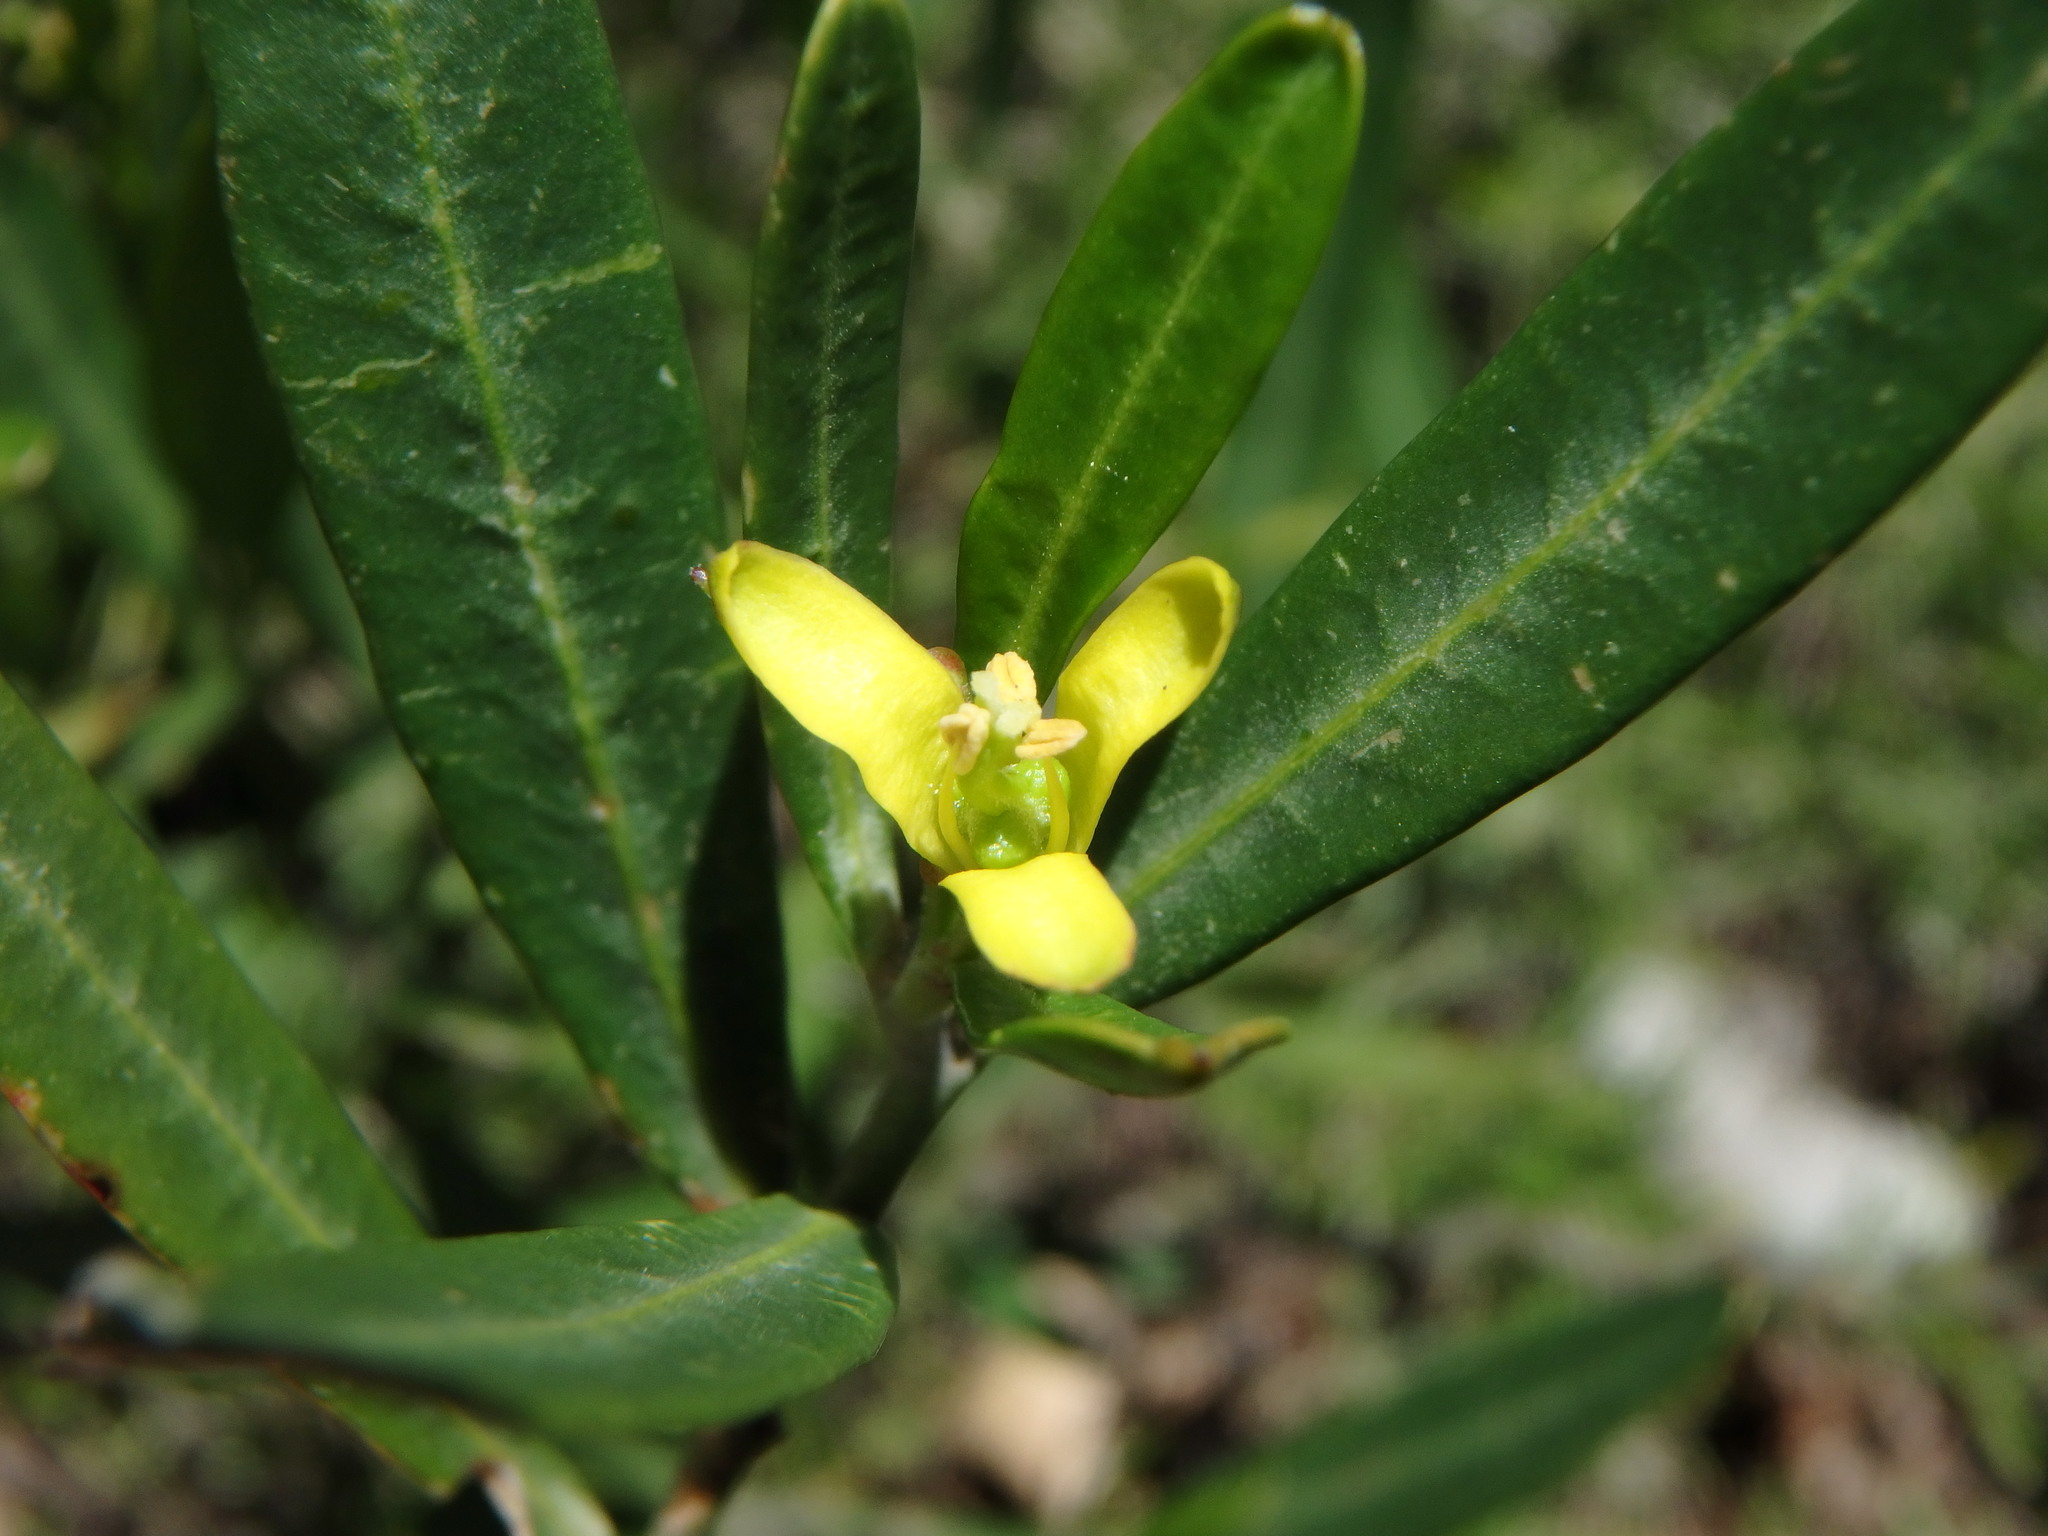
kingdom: Plantae
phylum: Tracheophyta
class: Magnoliopsida
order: Sapindales
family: Rutaceae
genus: Cneorum
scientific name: Cneorum tricoccon
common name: Spurge olive
